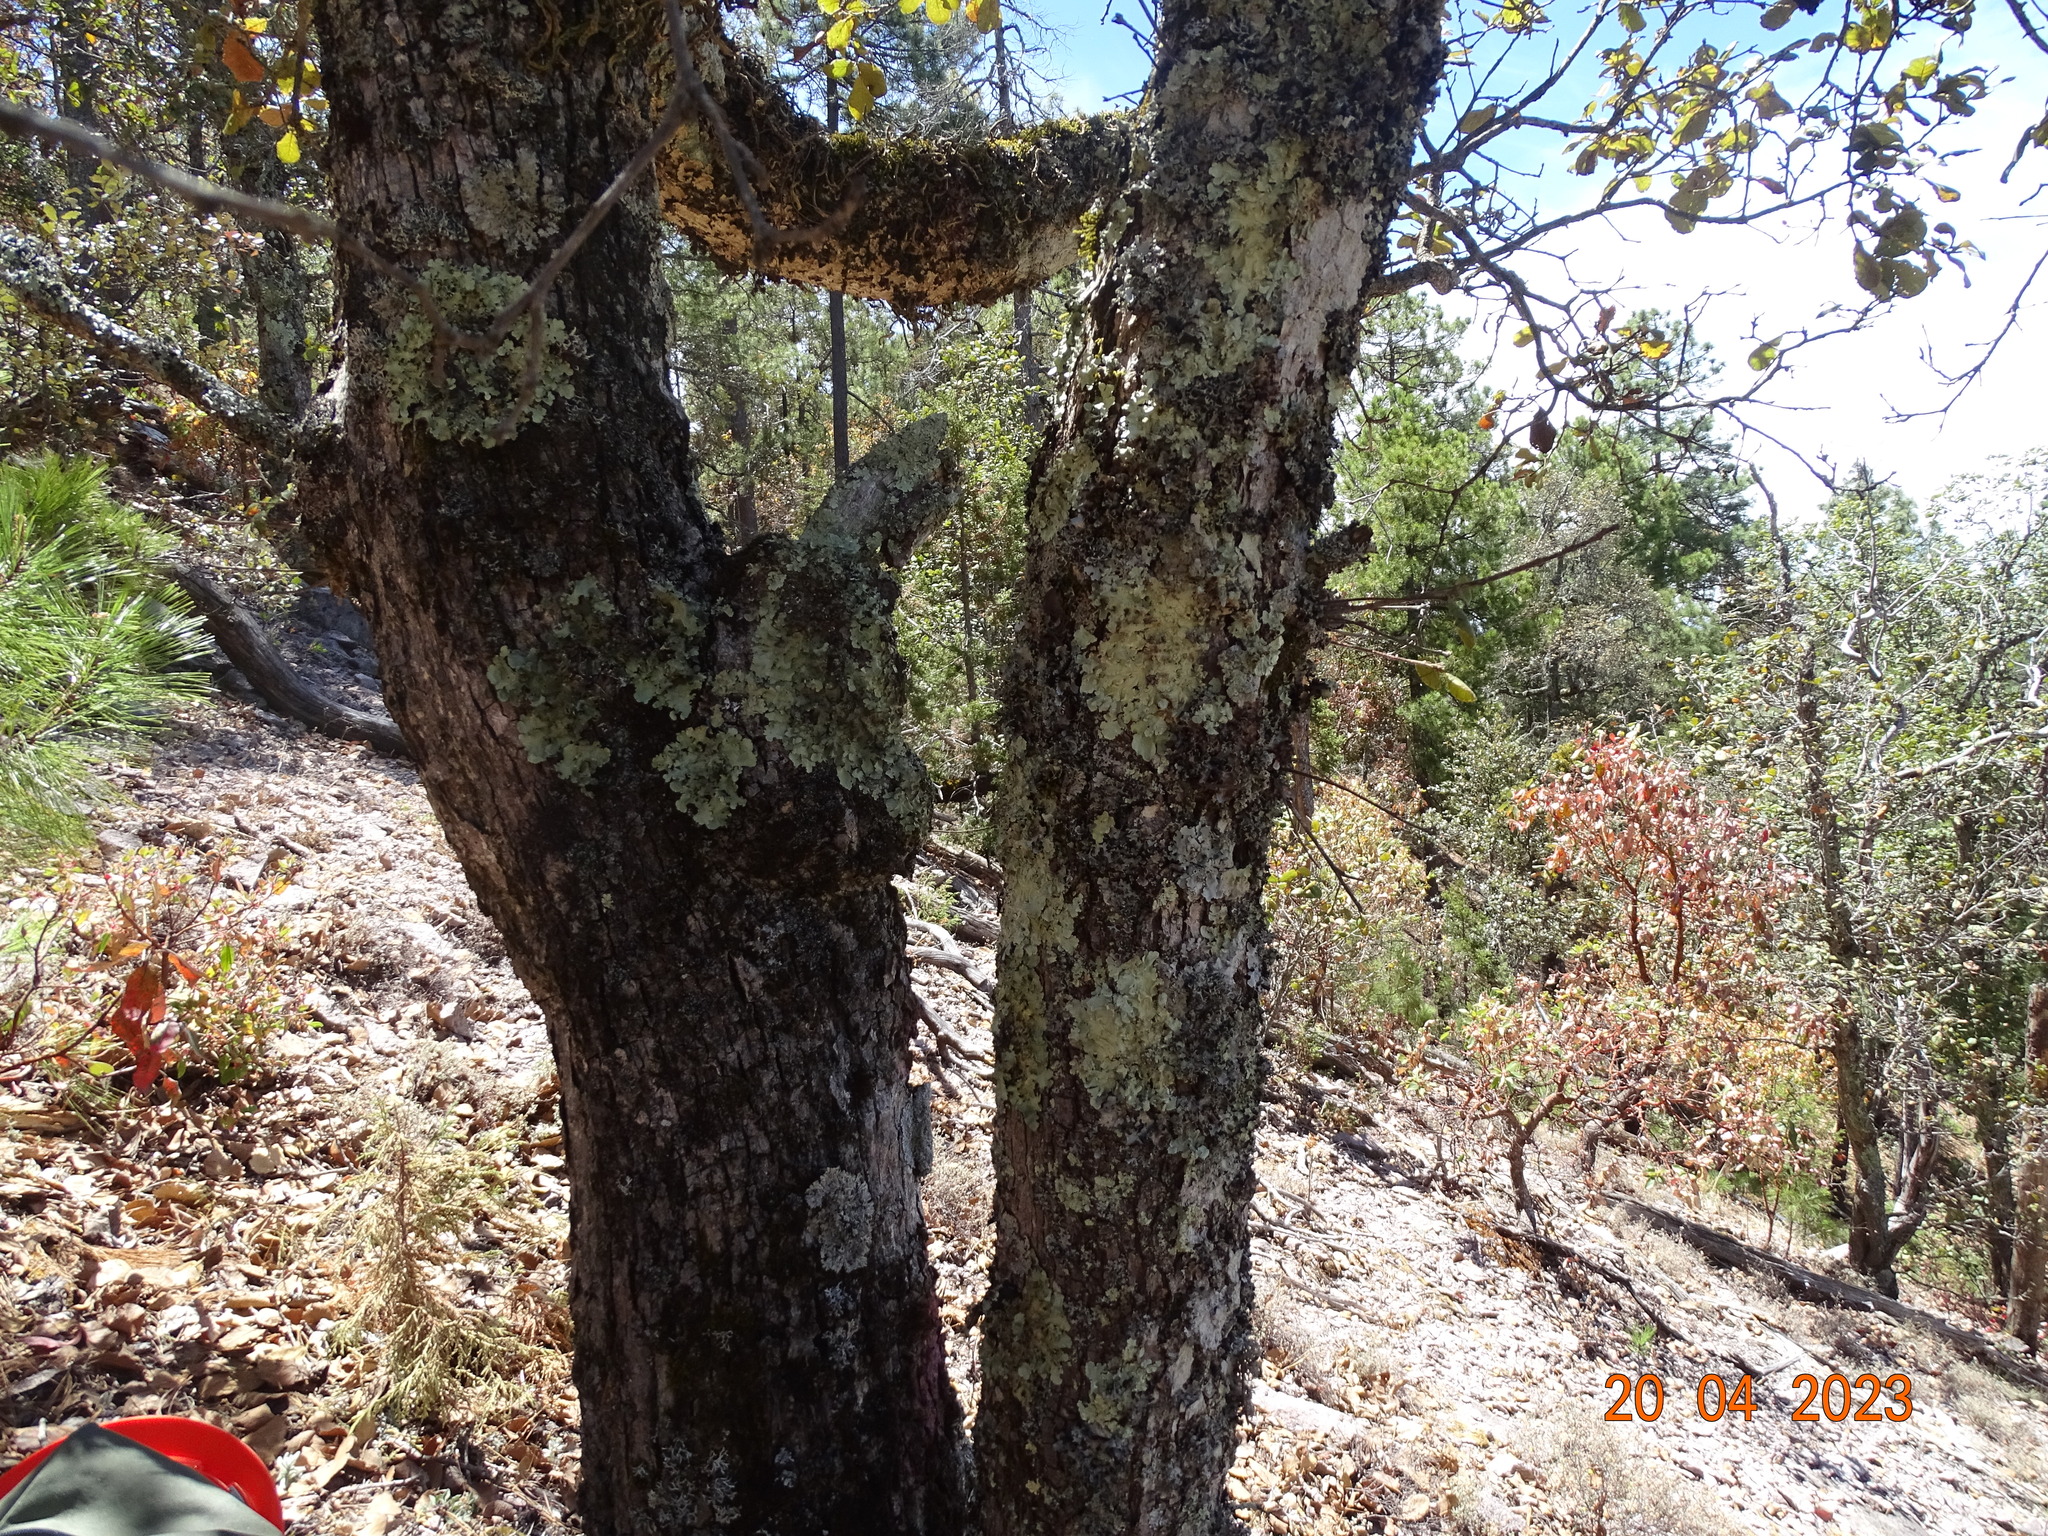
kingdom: Plantae
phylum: Tracheophyta
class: Magnoliopsida
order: Fagales
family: Fagaceae
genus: Quercus
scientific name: Quercus rugosa
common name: Netleaf oak
